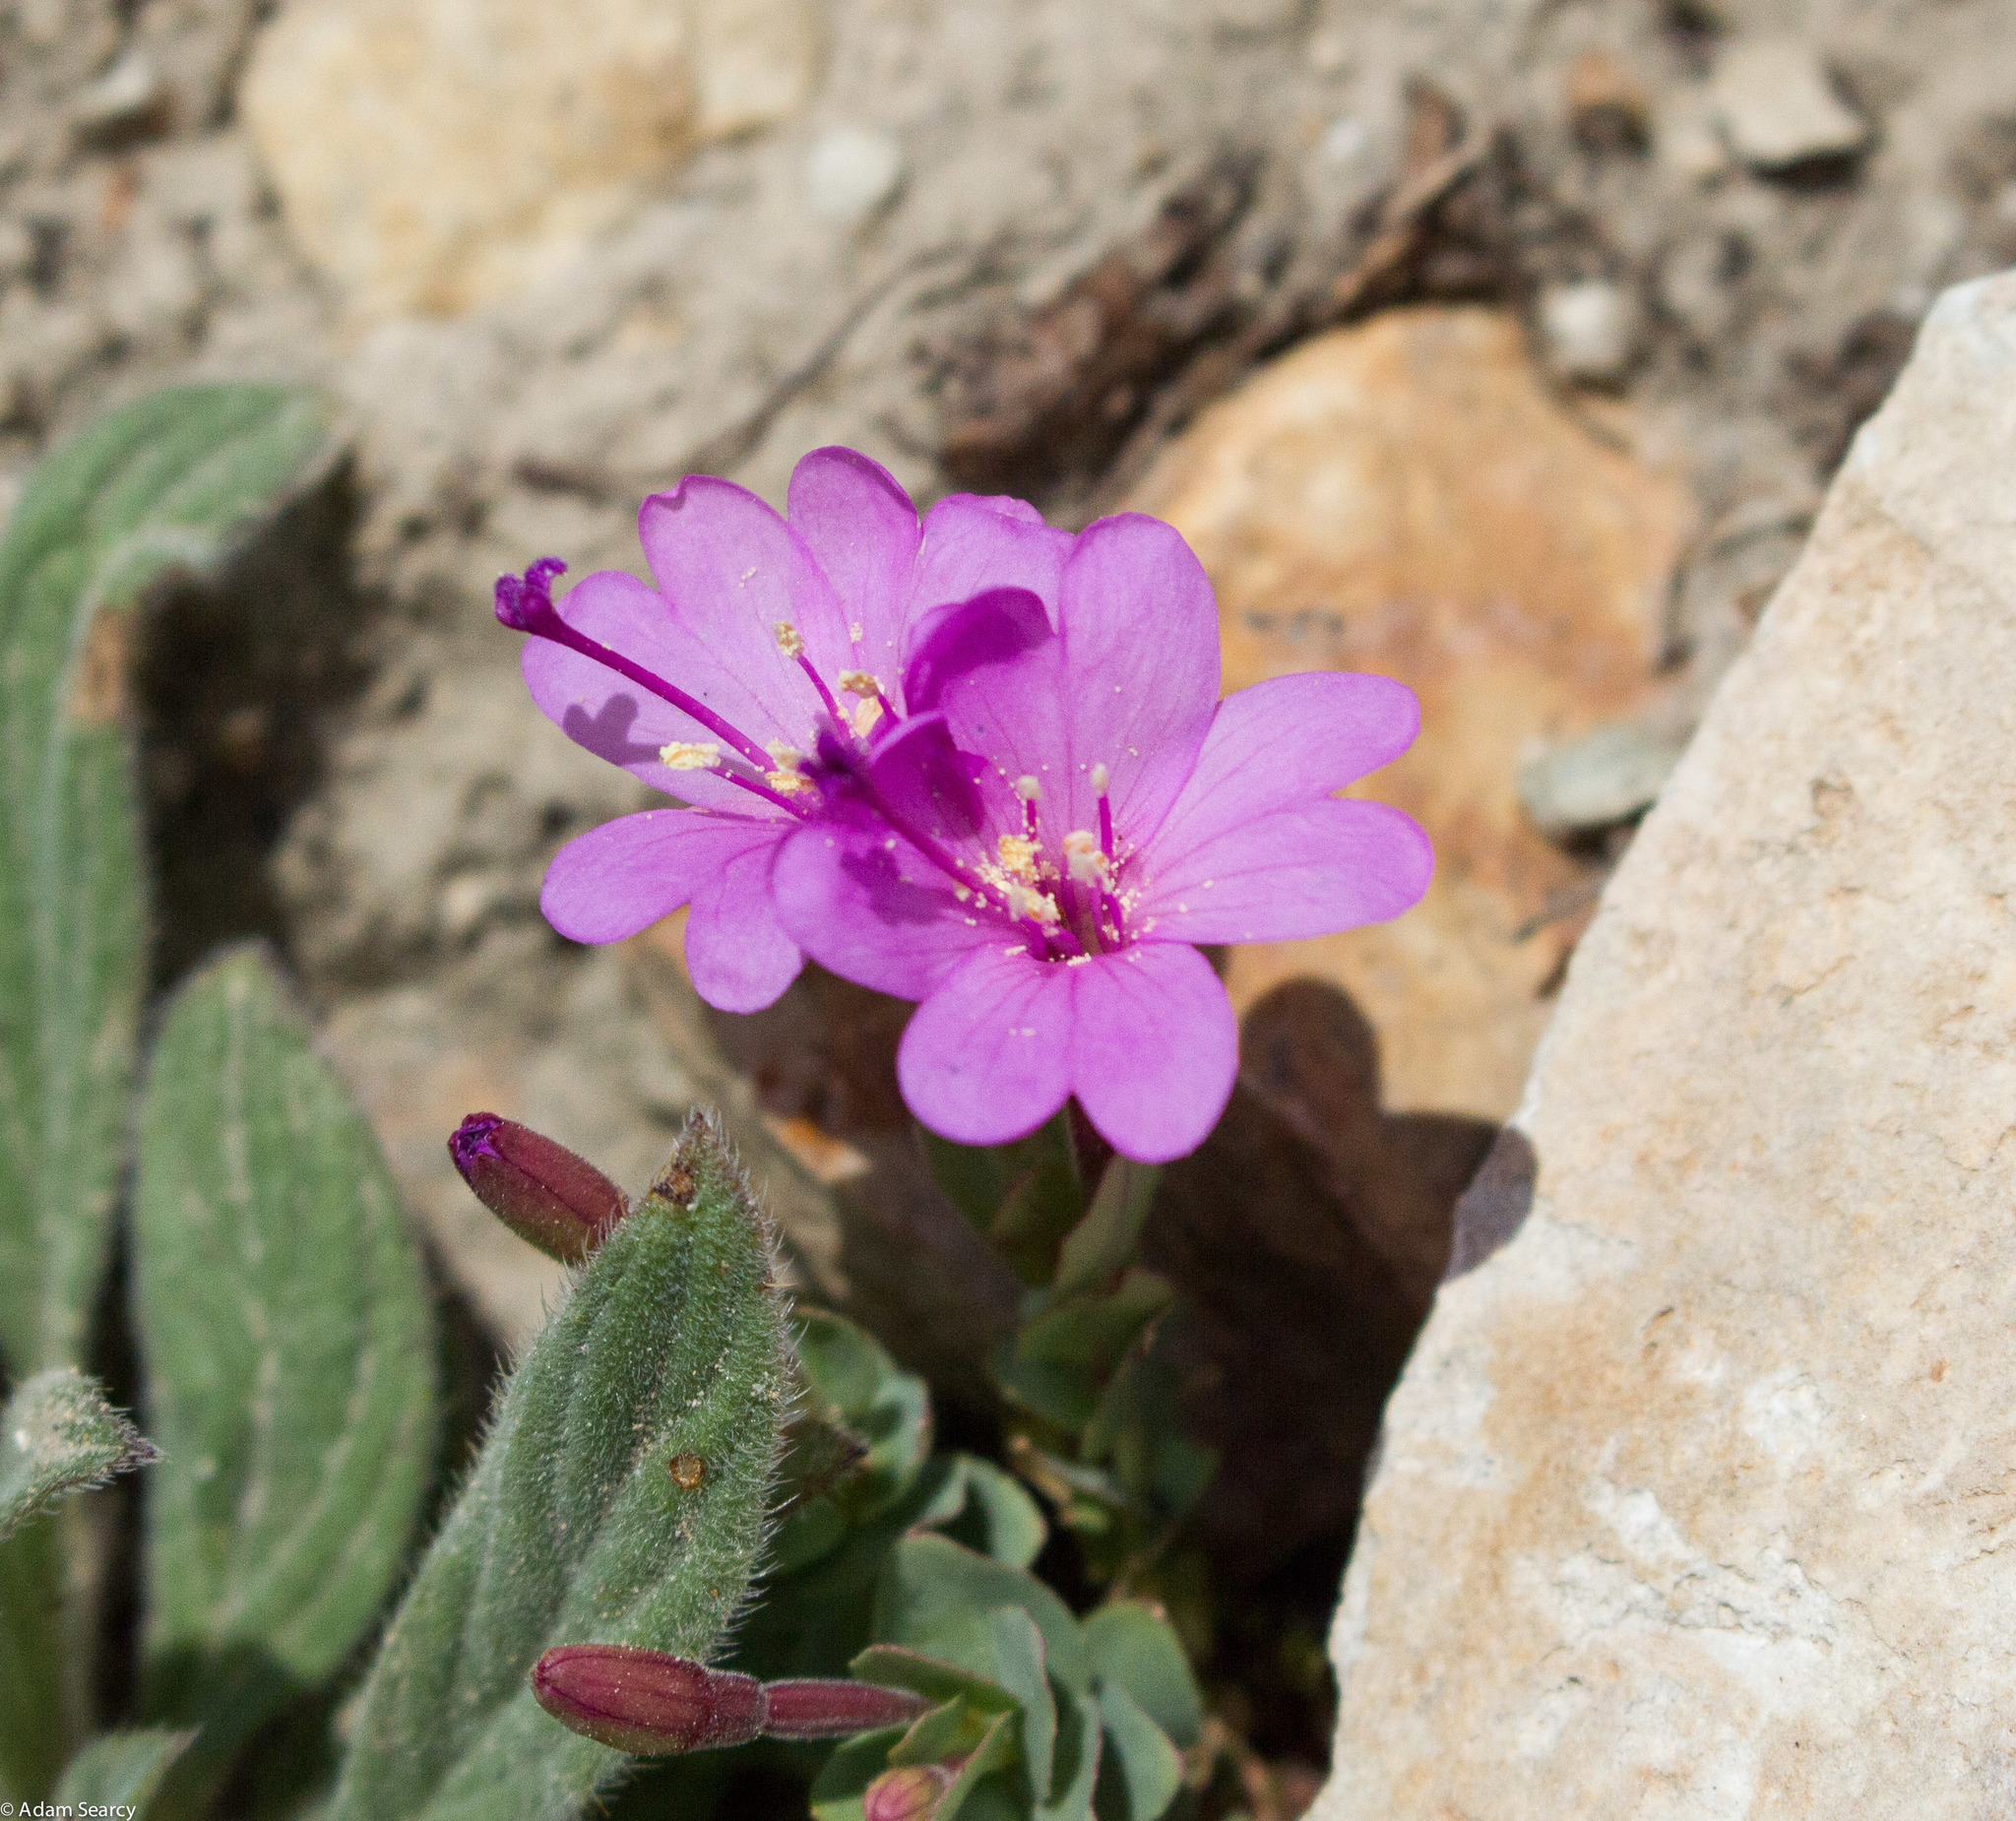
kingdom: Plantae
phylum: Tracheophyta
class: Magnoliopsida
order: Myrtales
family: Onagraceae
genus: Epilobium
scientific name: Epilobium obcordatum
